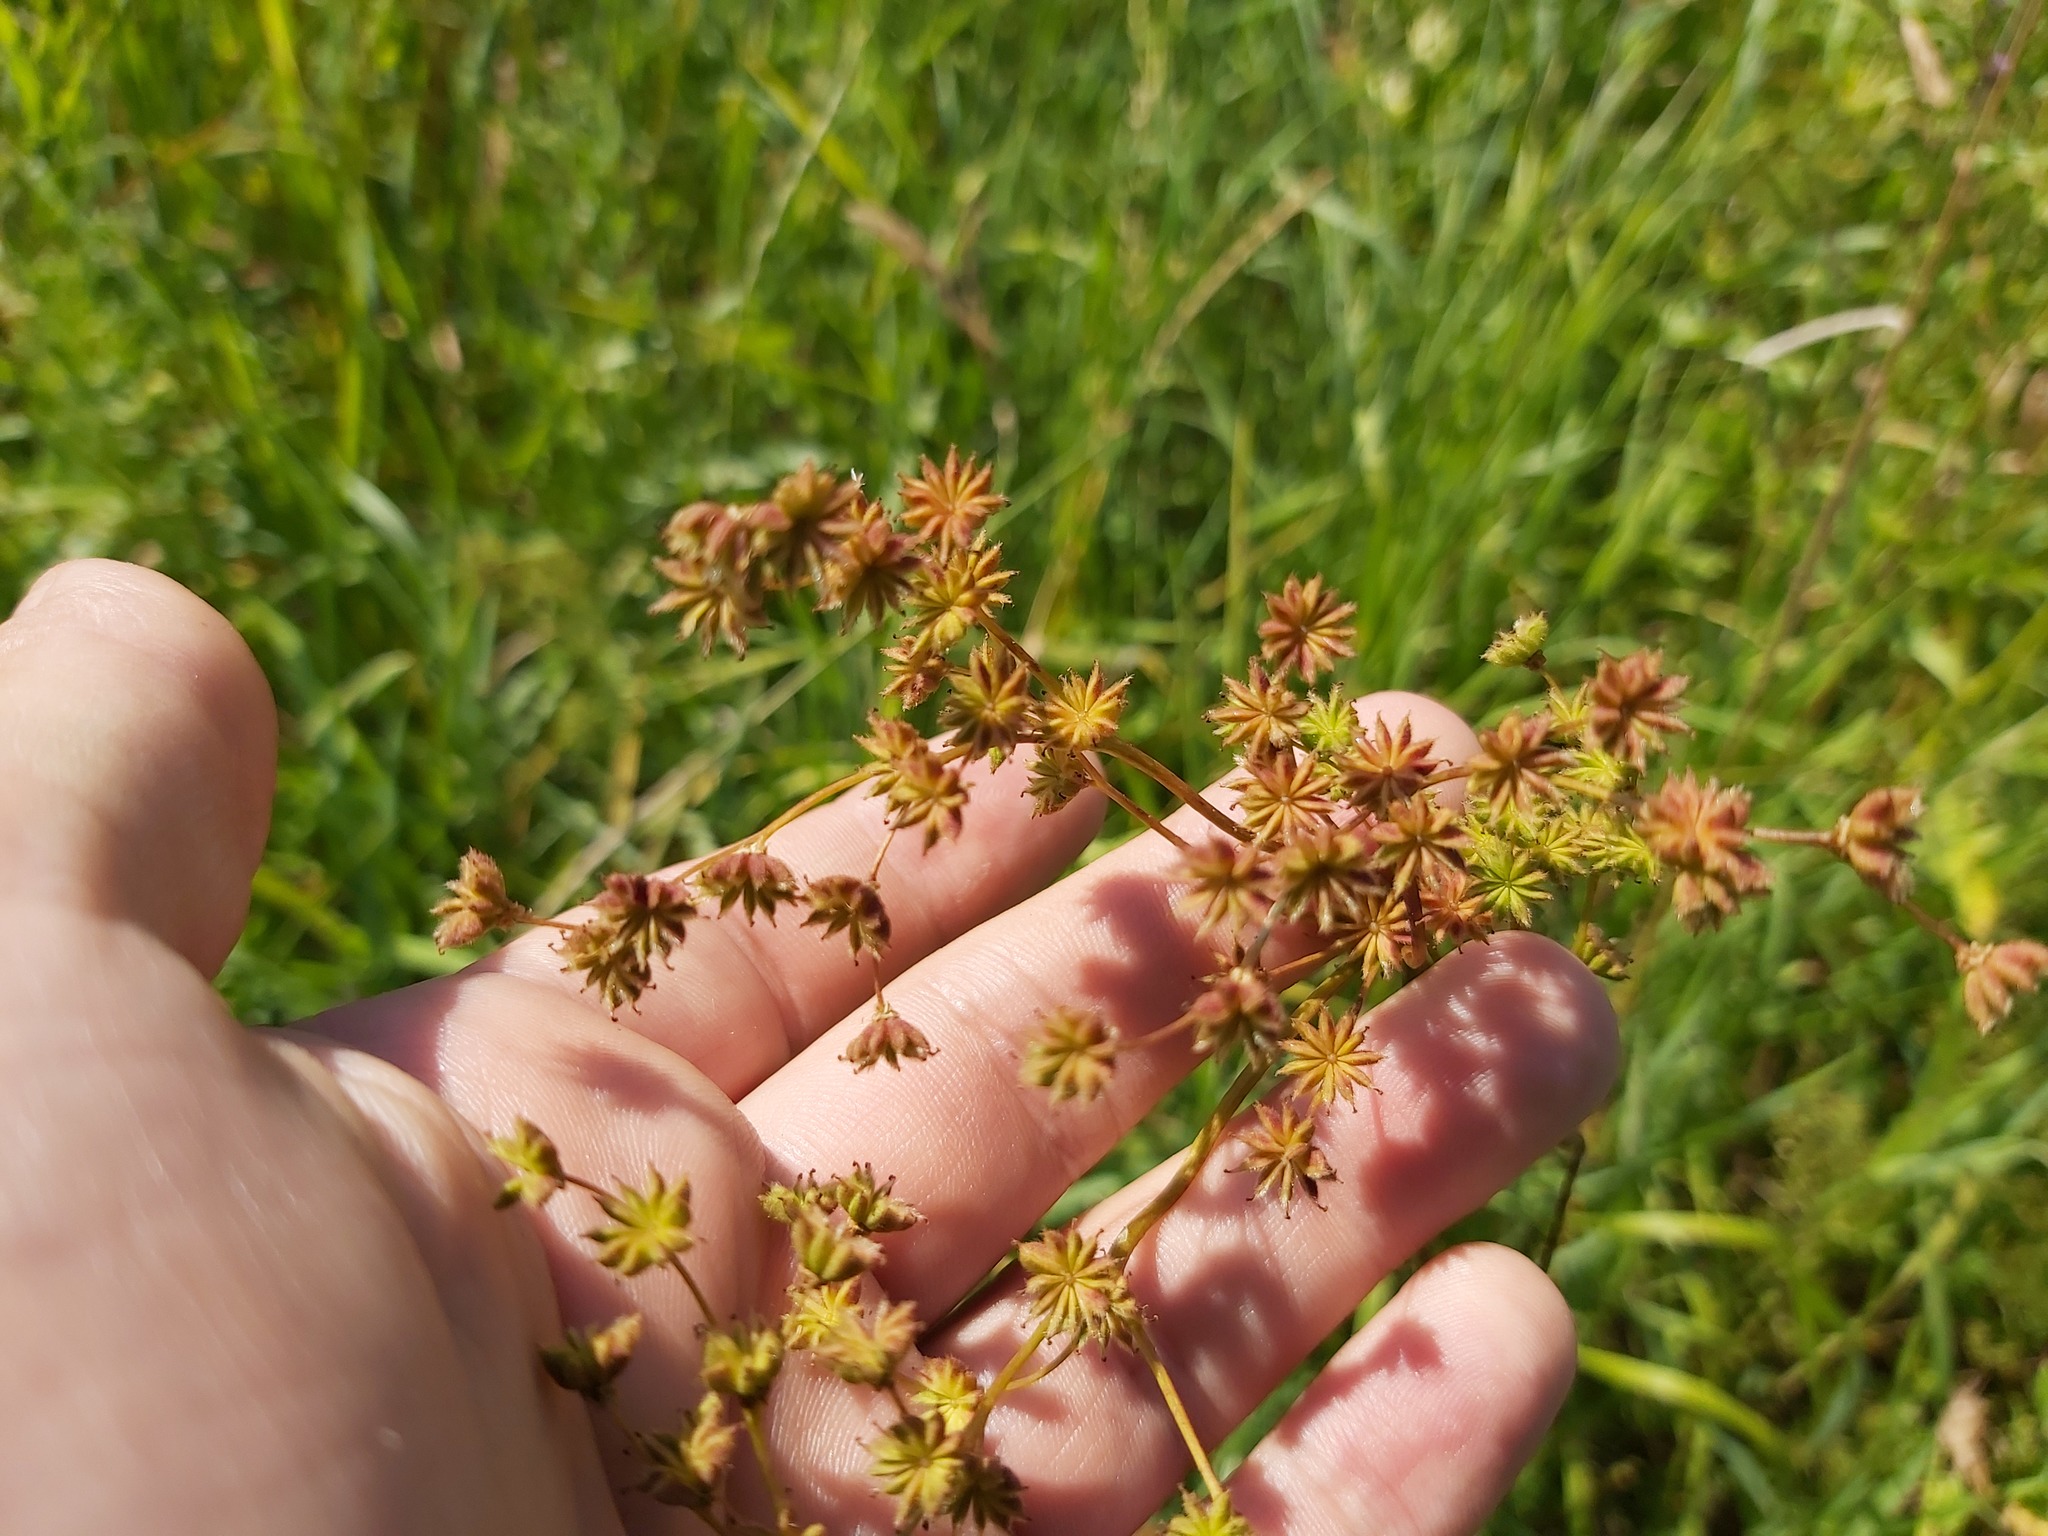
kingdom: Plantae
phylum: Tracheophyta
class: Magnoliopsida
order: Rosales
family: Rosaceae
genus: Filipendula
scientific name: Filipendula vulgaris
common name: Dropwort
